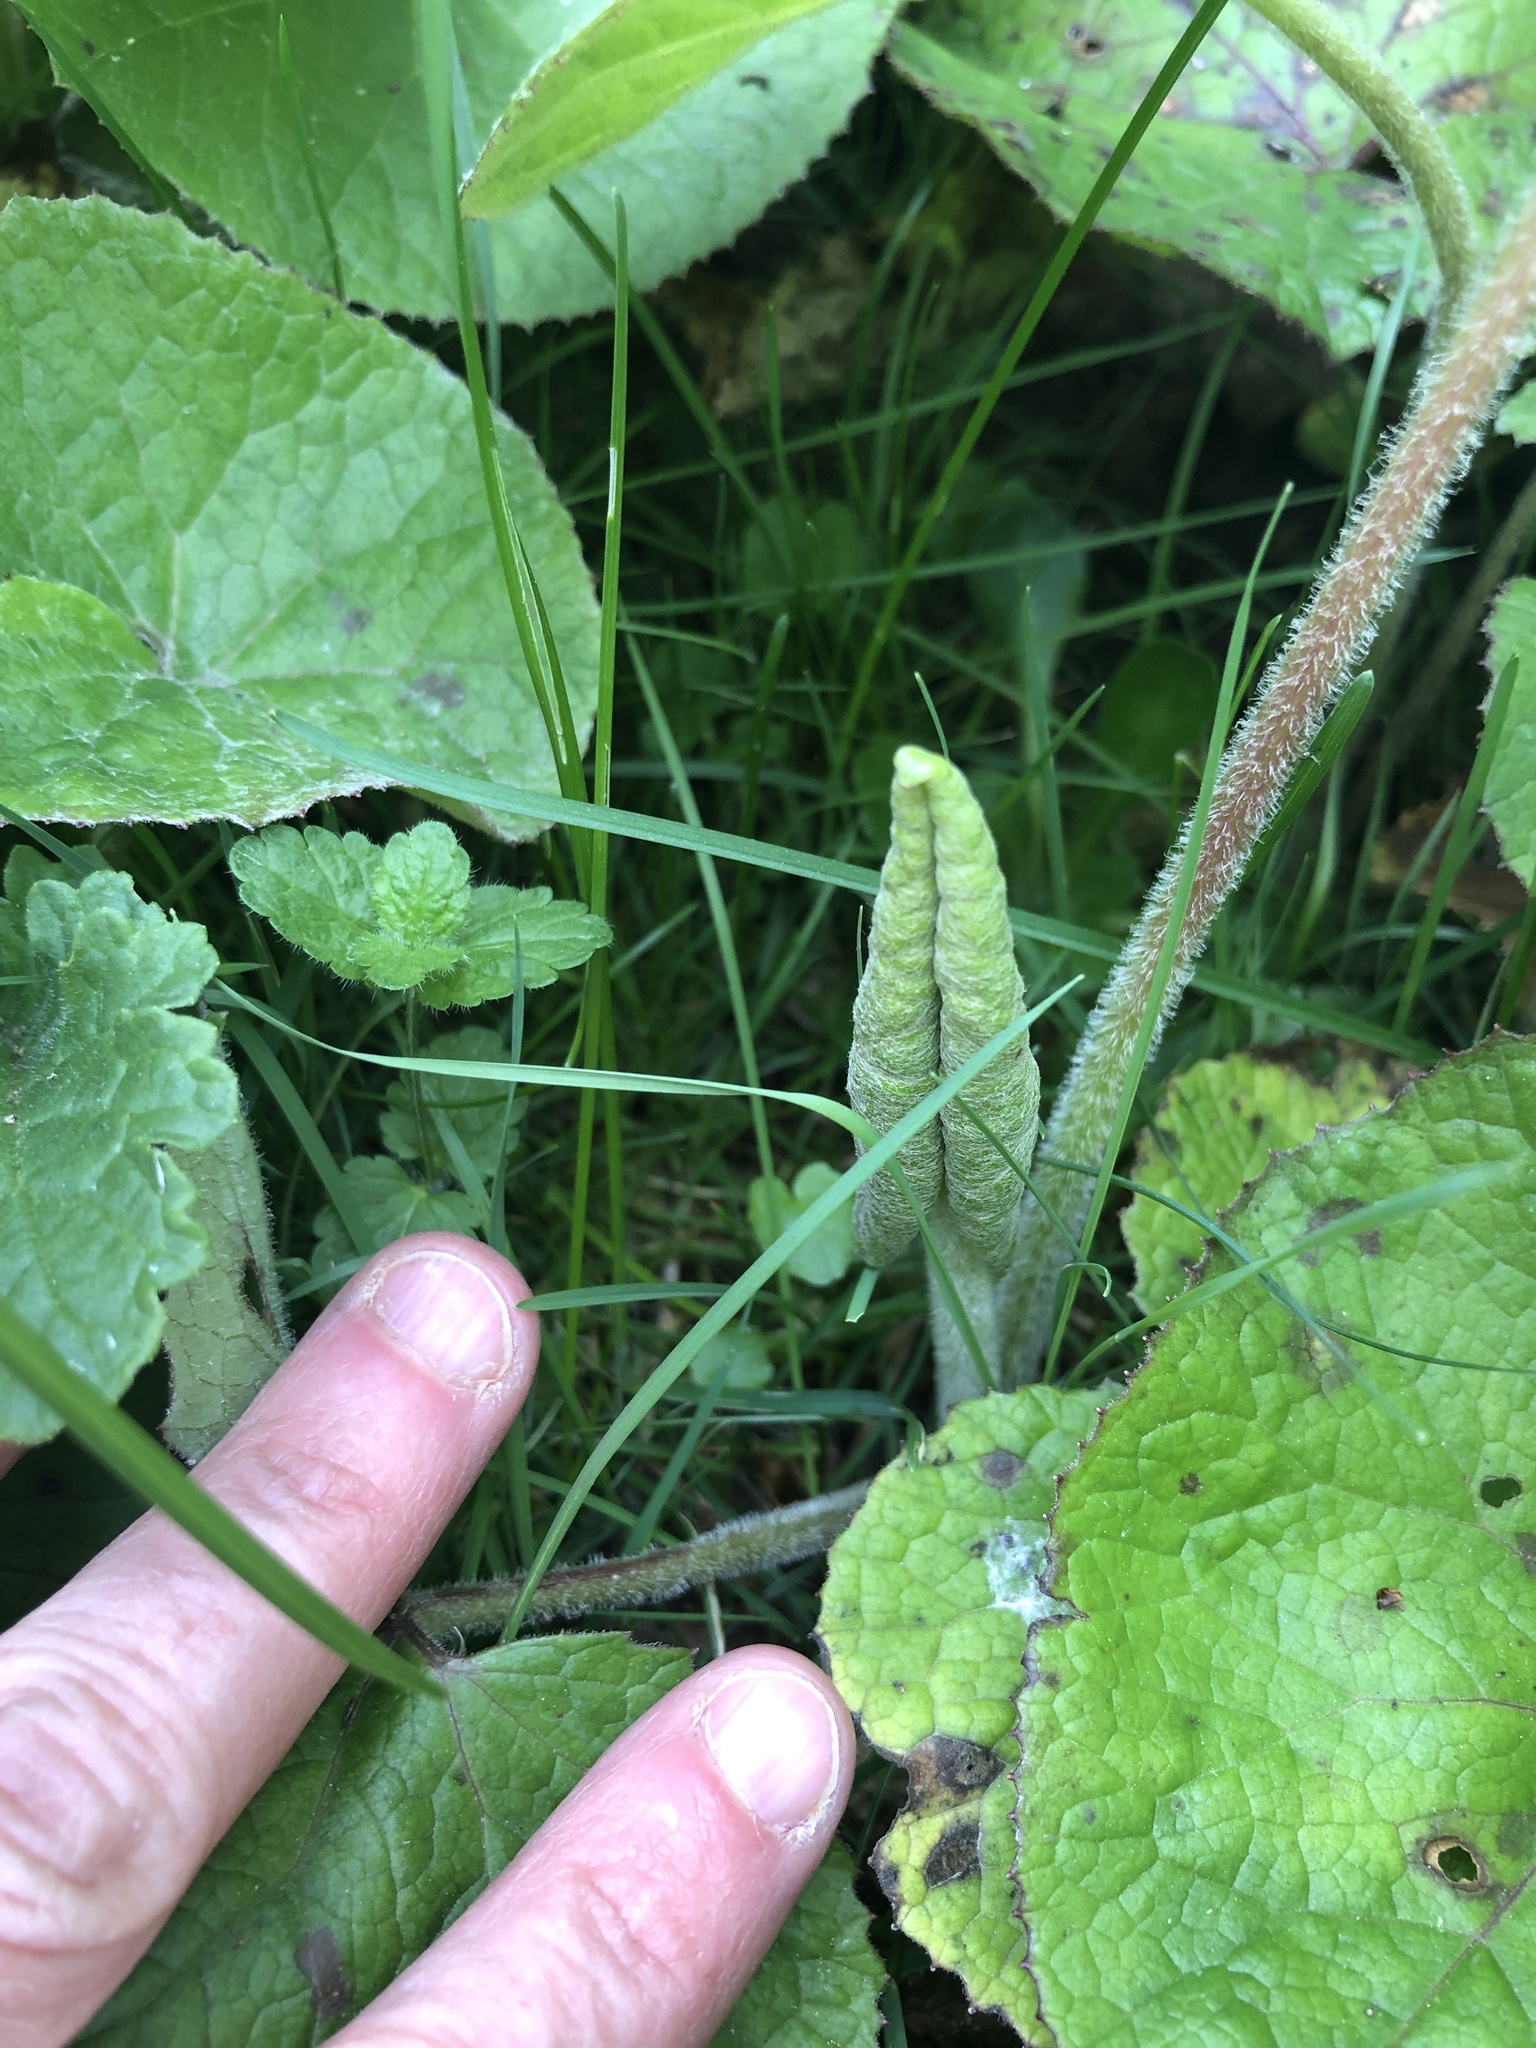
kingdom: Plantae
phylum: Tracheophyta
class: Magnoliopsida
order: Asterales
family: Asteraceae
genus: Petasites
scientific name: Petasites pyrenaicus
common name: Winter heliotrope
